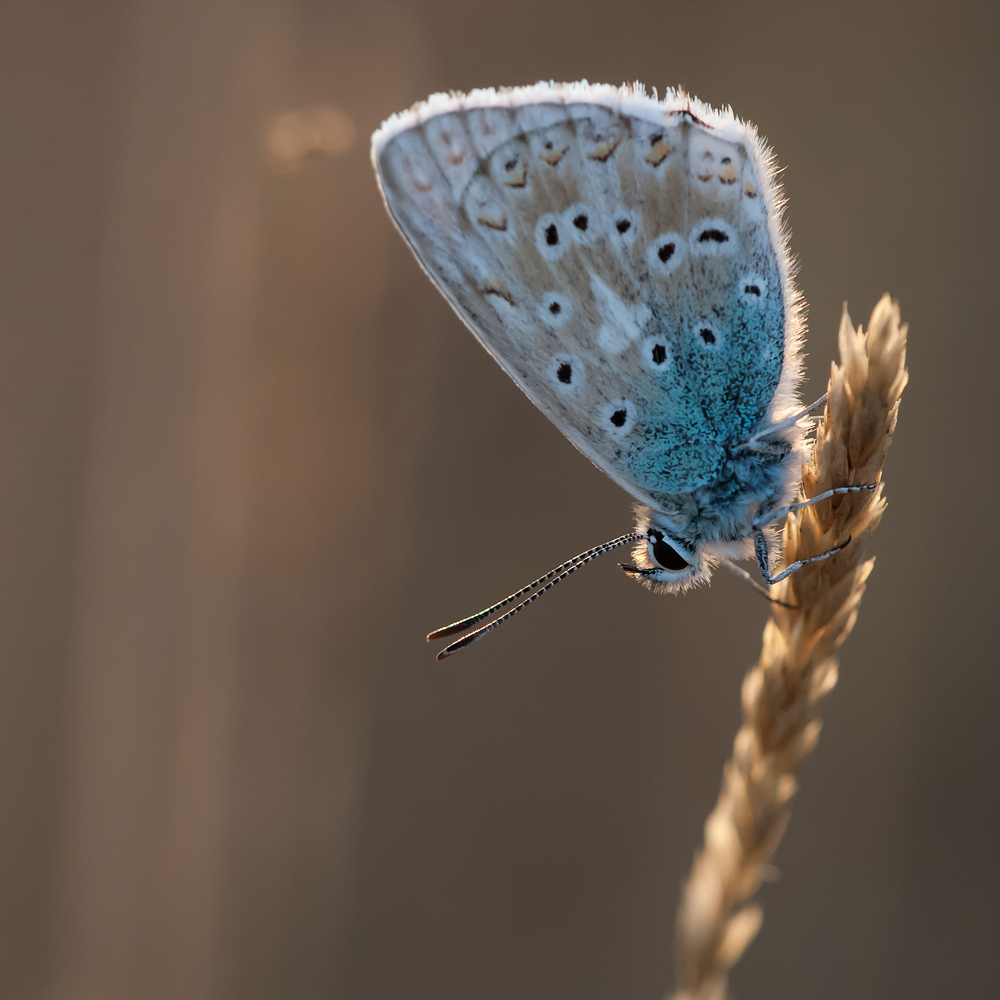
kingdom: Animalia
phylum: Arthropoda
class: Insecta
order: Lepidoptera
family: Lycaenidae
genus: Lysandra
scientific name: Lysandra coridon
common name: Chalkhill blue
